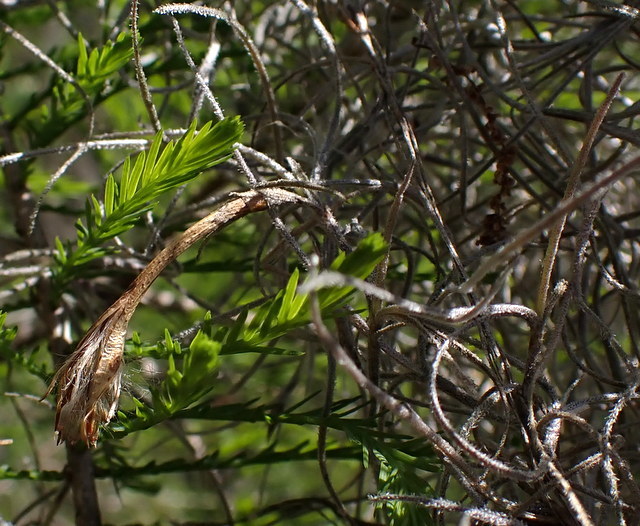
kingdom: Plantae
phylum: Tracheophyta
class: Liliopsida
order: Poales
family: Bromeliaceae
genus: Tillandsia
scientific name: Tillandsia usneoides
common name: Spanish moss
